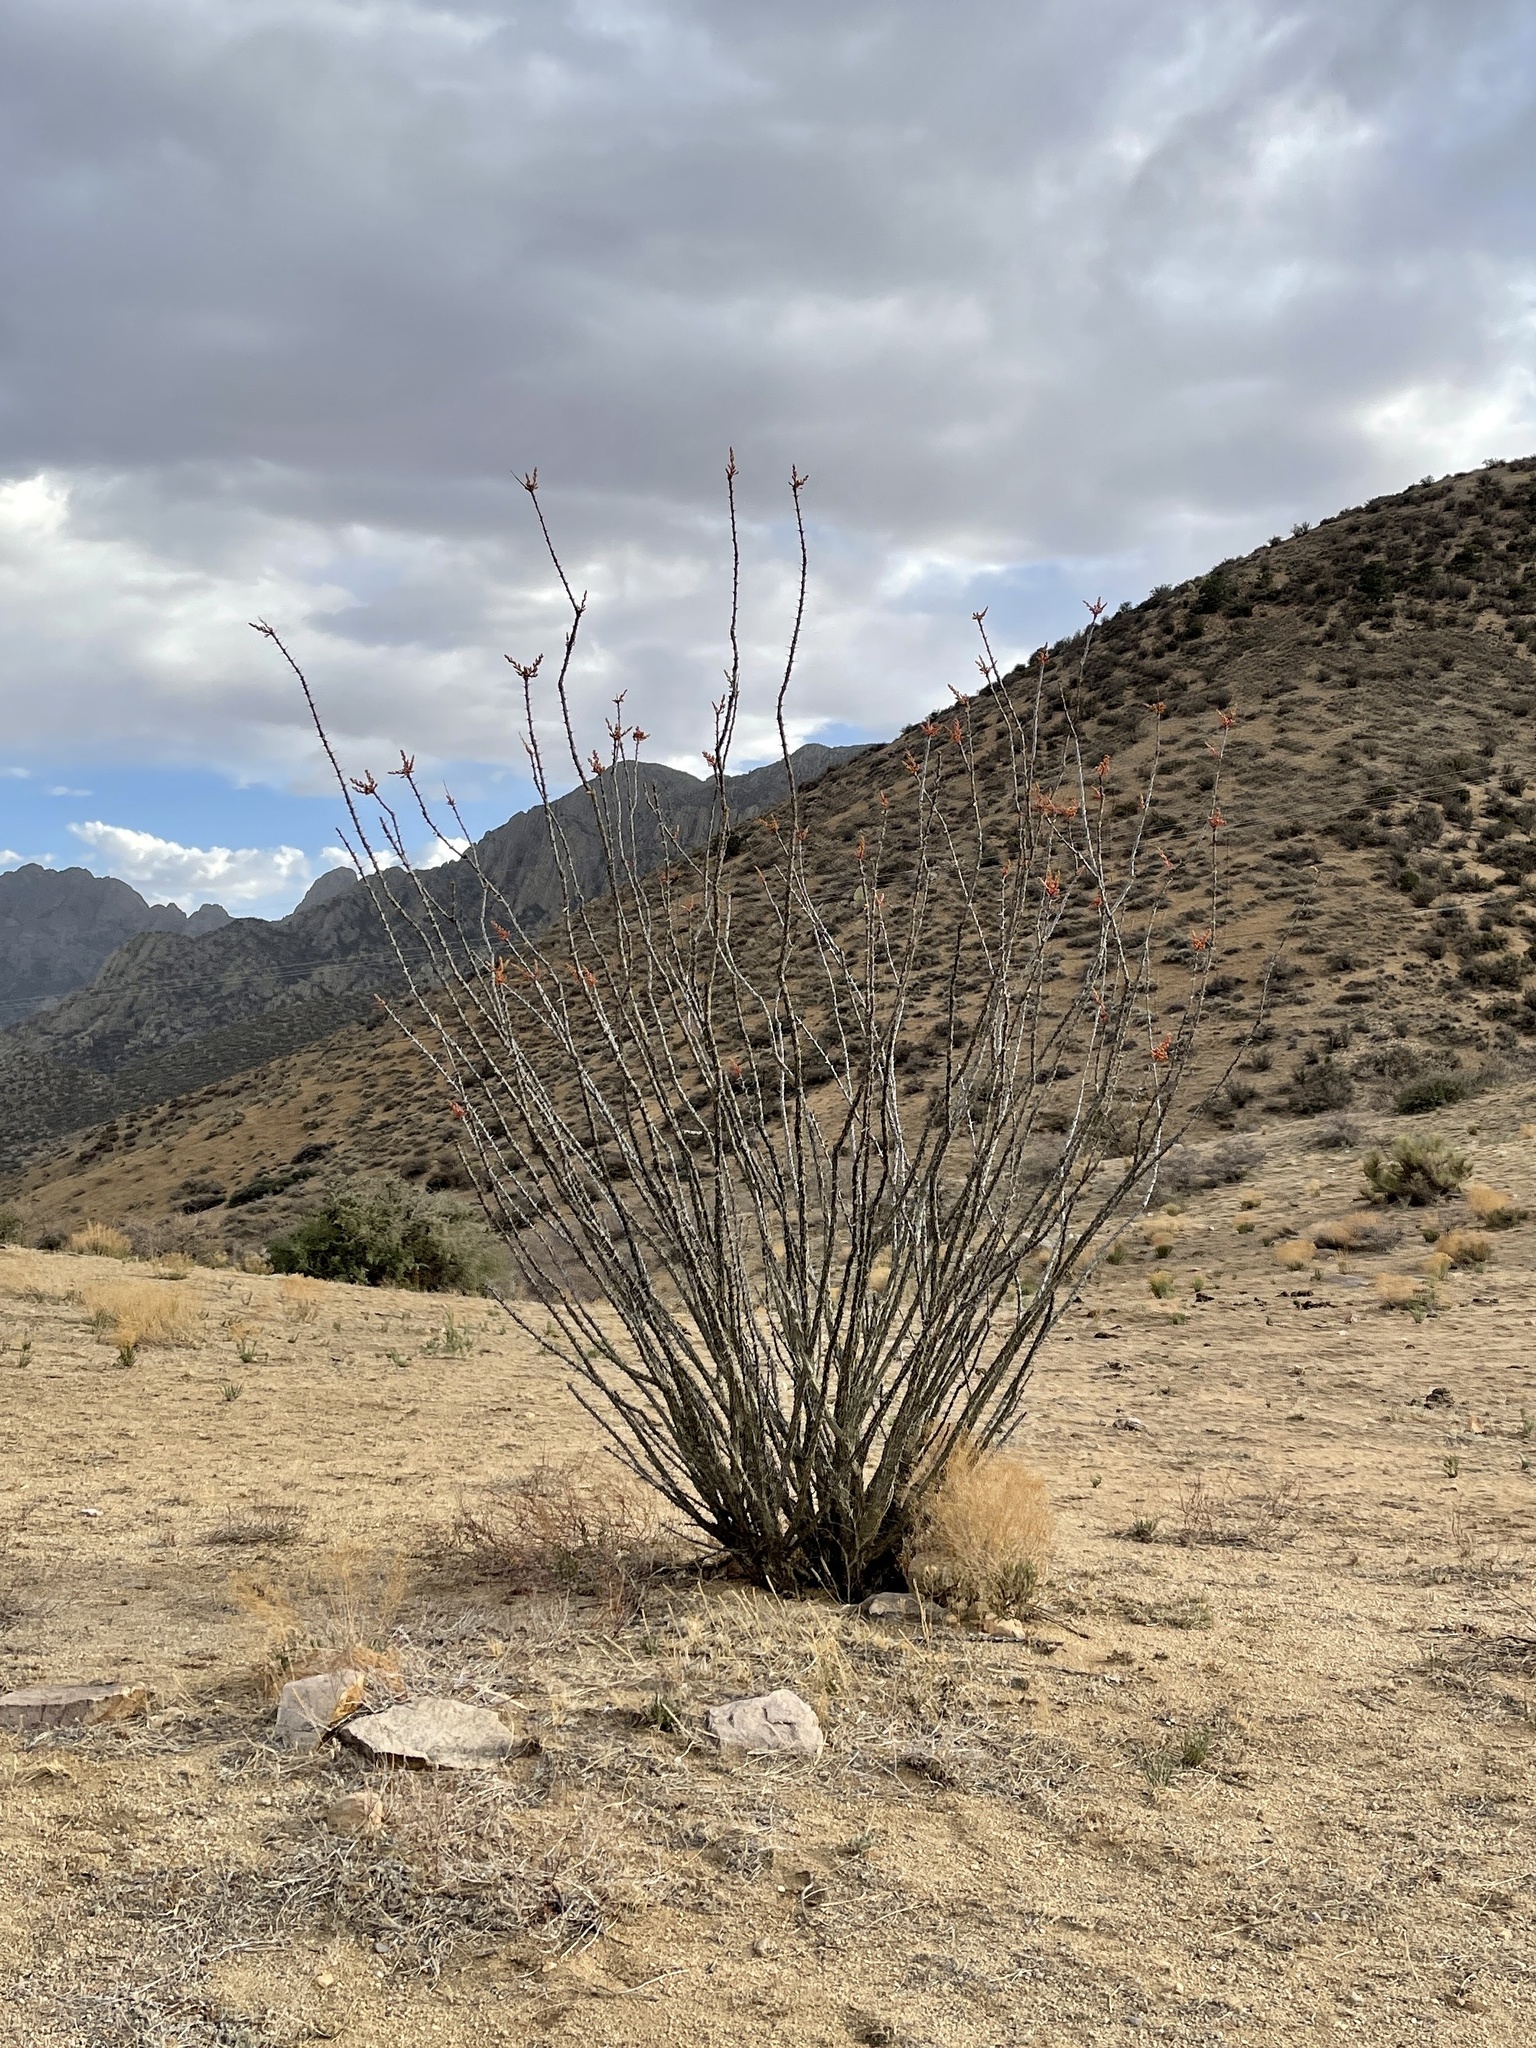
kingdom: Plantae
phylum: Tracheophyta
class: Magnoliopsida
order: Ericales
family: Fouquieriaceae
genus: Fouquieria
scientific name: Fouquieria splendens
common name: Vine-cactus
